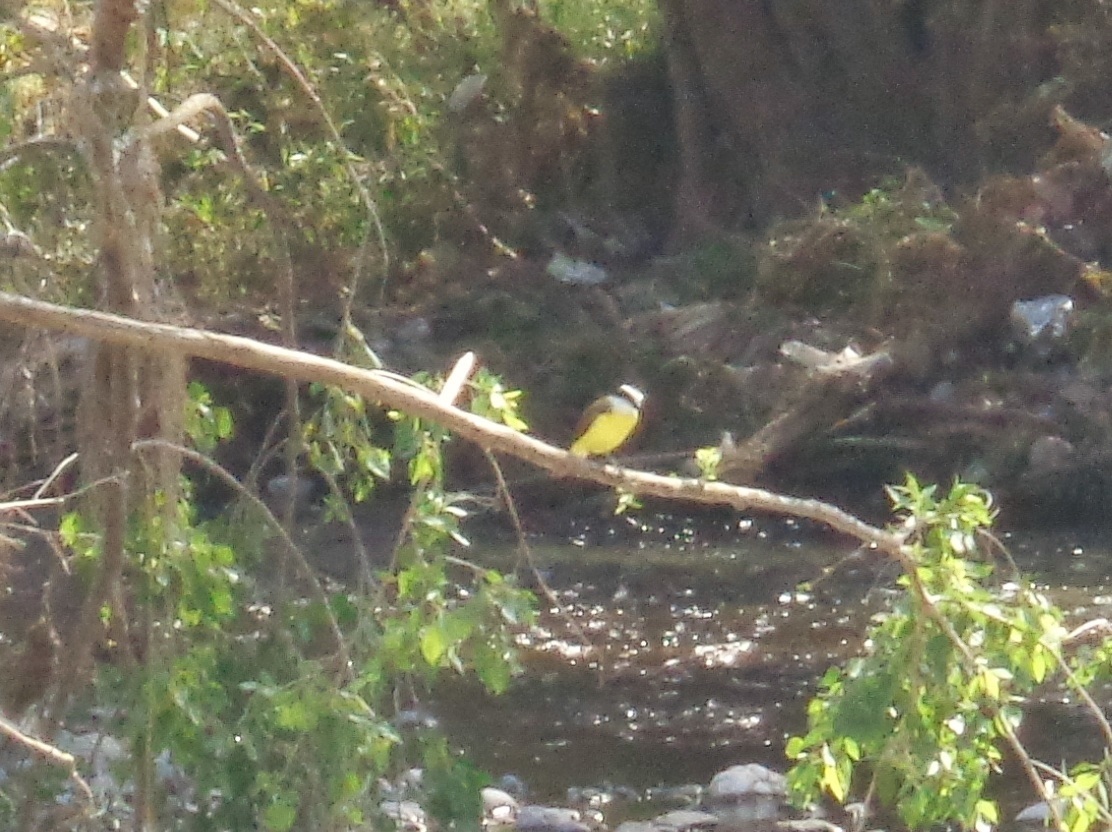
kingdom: Animalia
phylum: Chordata
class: Aves
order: Passeriformes
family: Tyrannidae
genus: Pitangus
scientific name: Pitangus sulphuratus
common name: Great kiskadee
